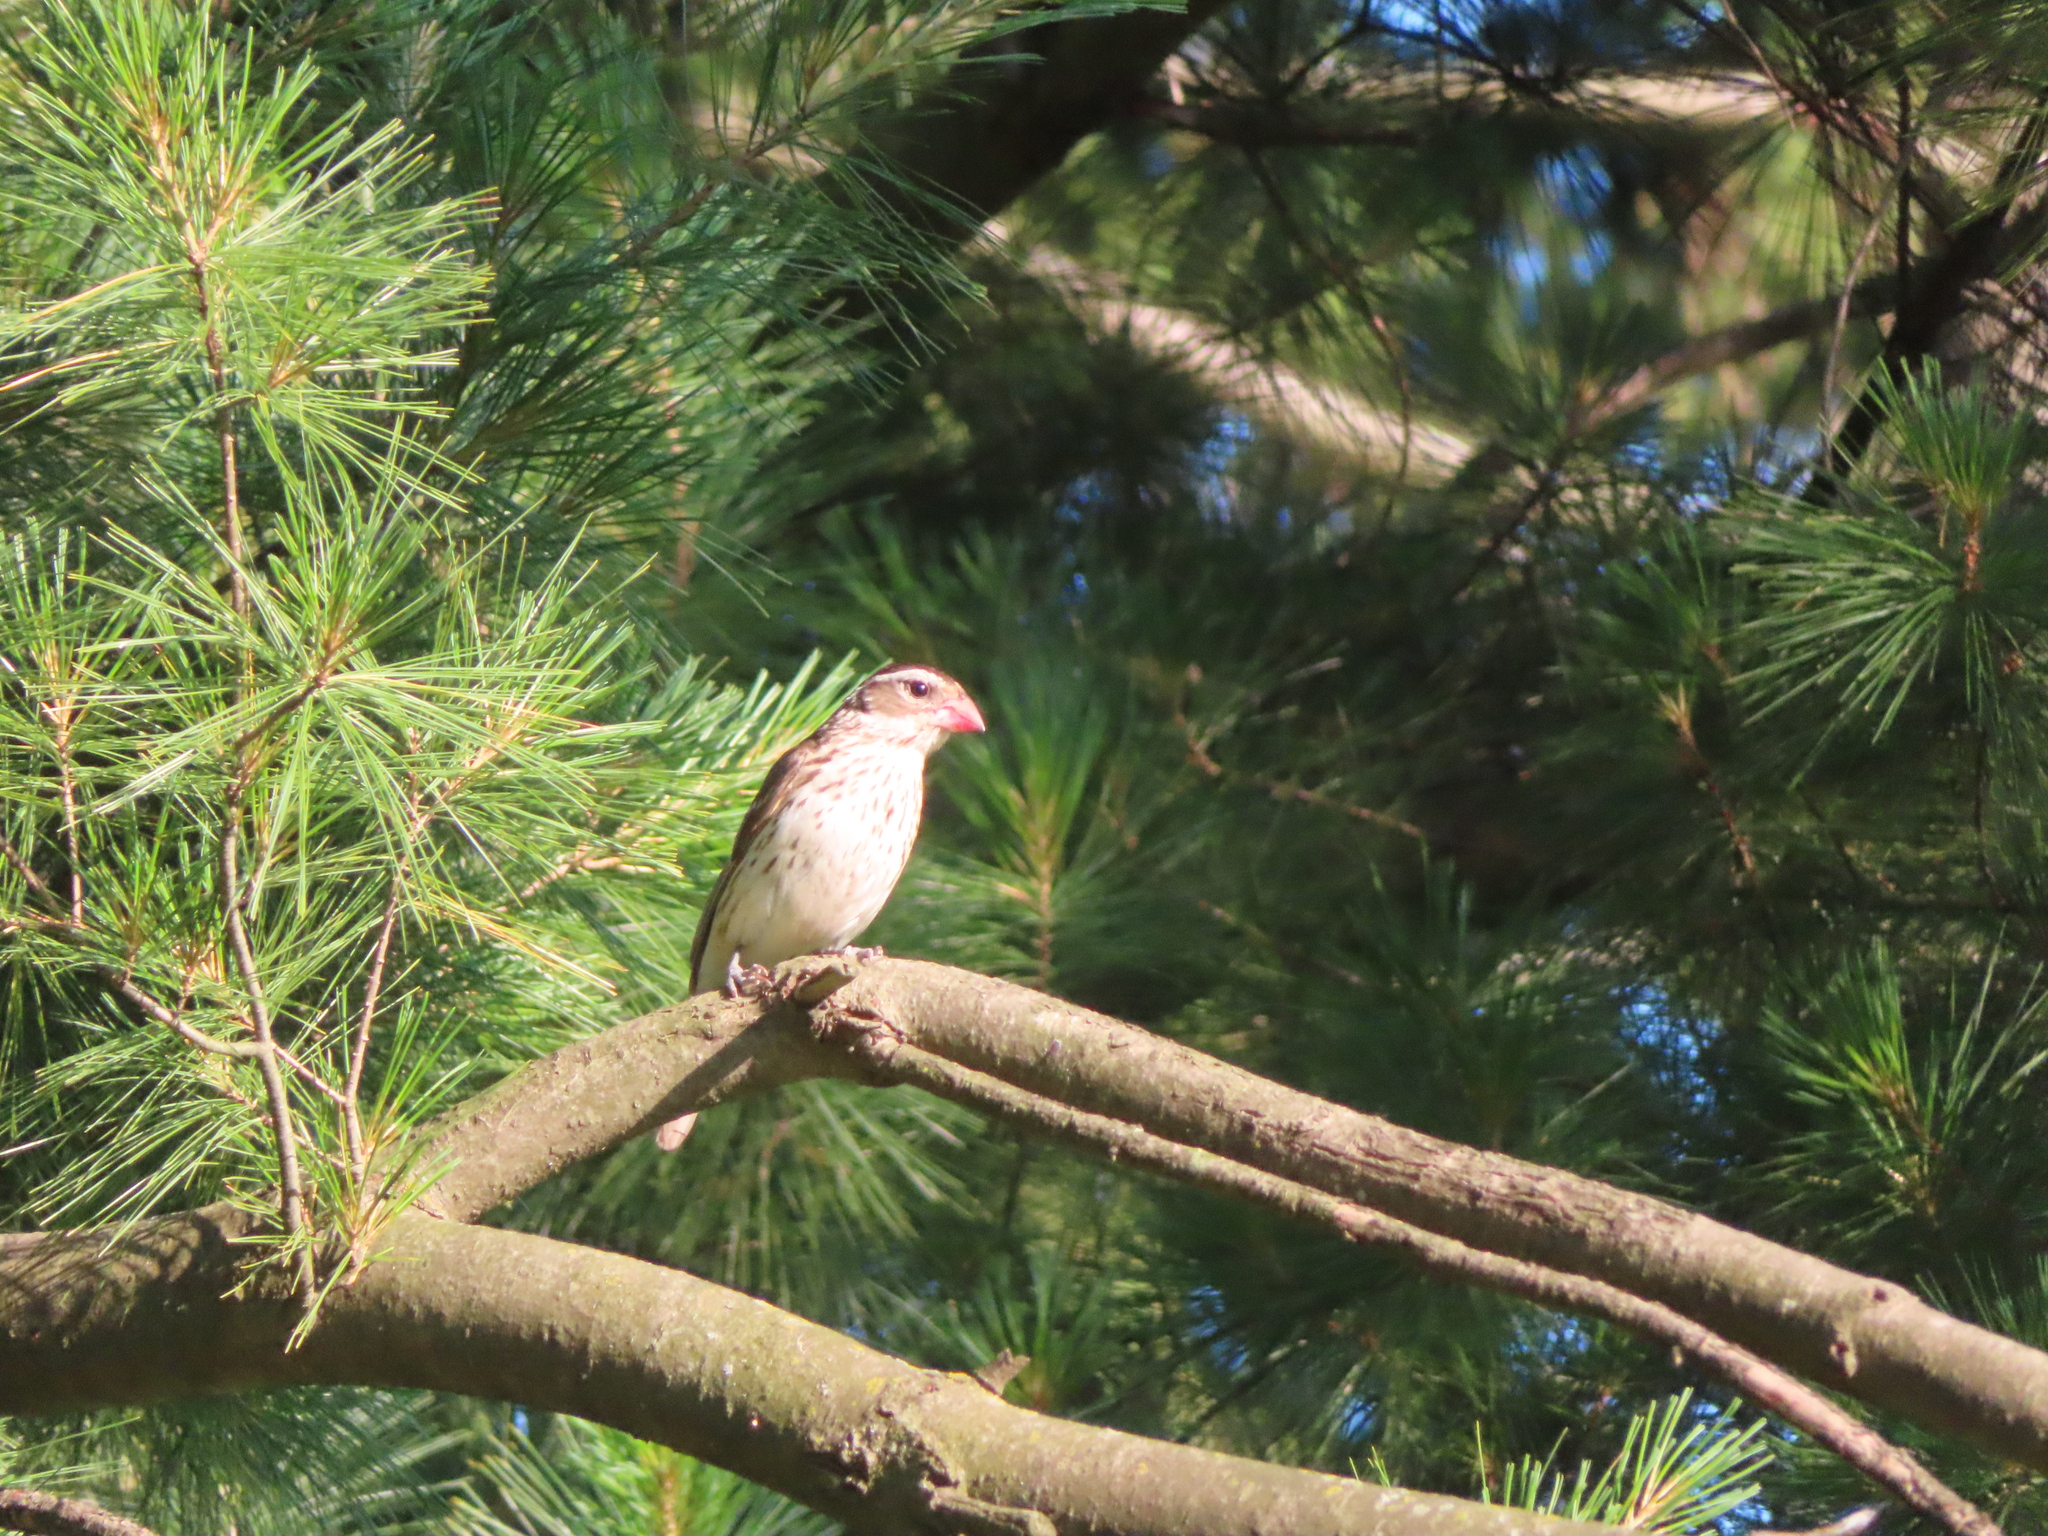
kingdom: Animalia
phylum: Chordata
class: Aves
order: Passeriformes
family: Cardinalidae
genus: Pheucticus
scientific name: Pheucticus ludovicianus
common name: Rose-breasted grosbeak
